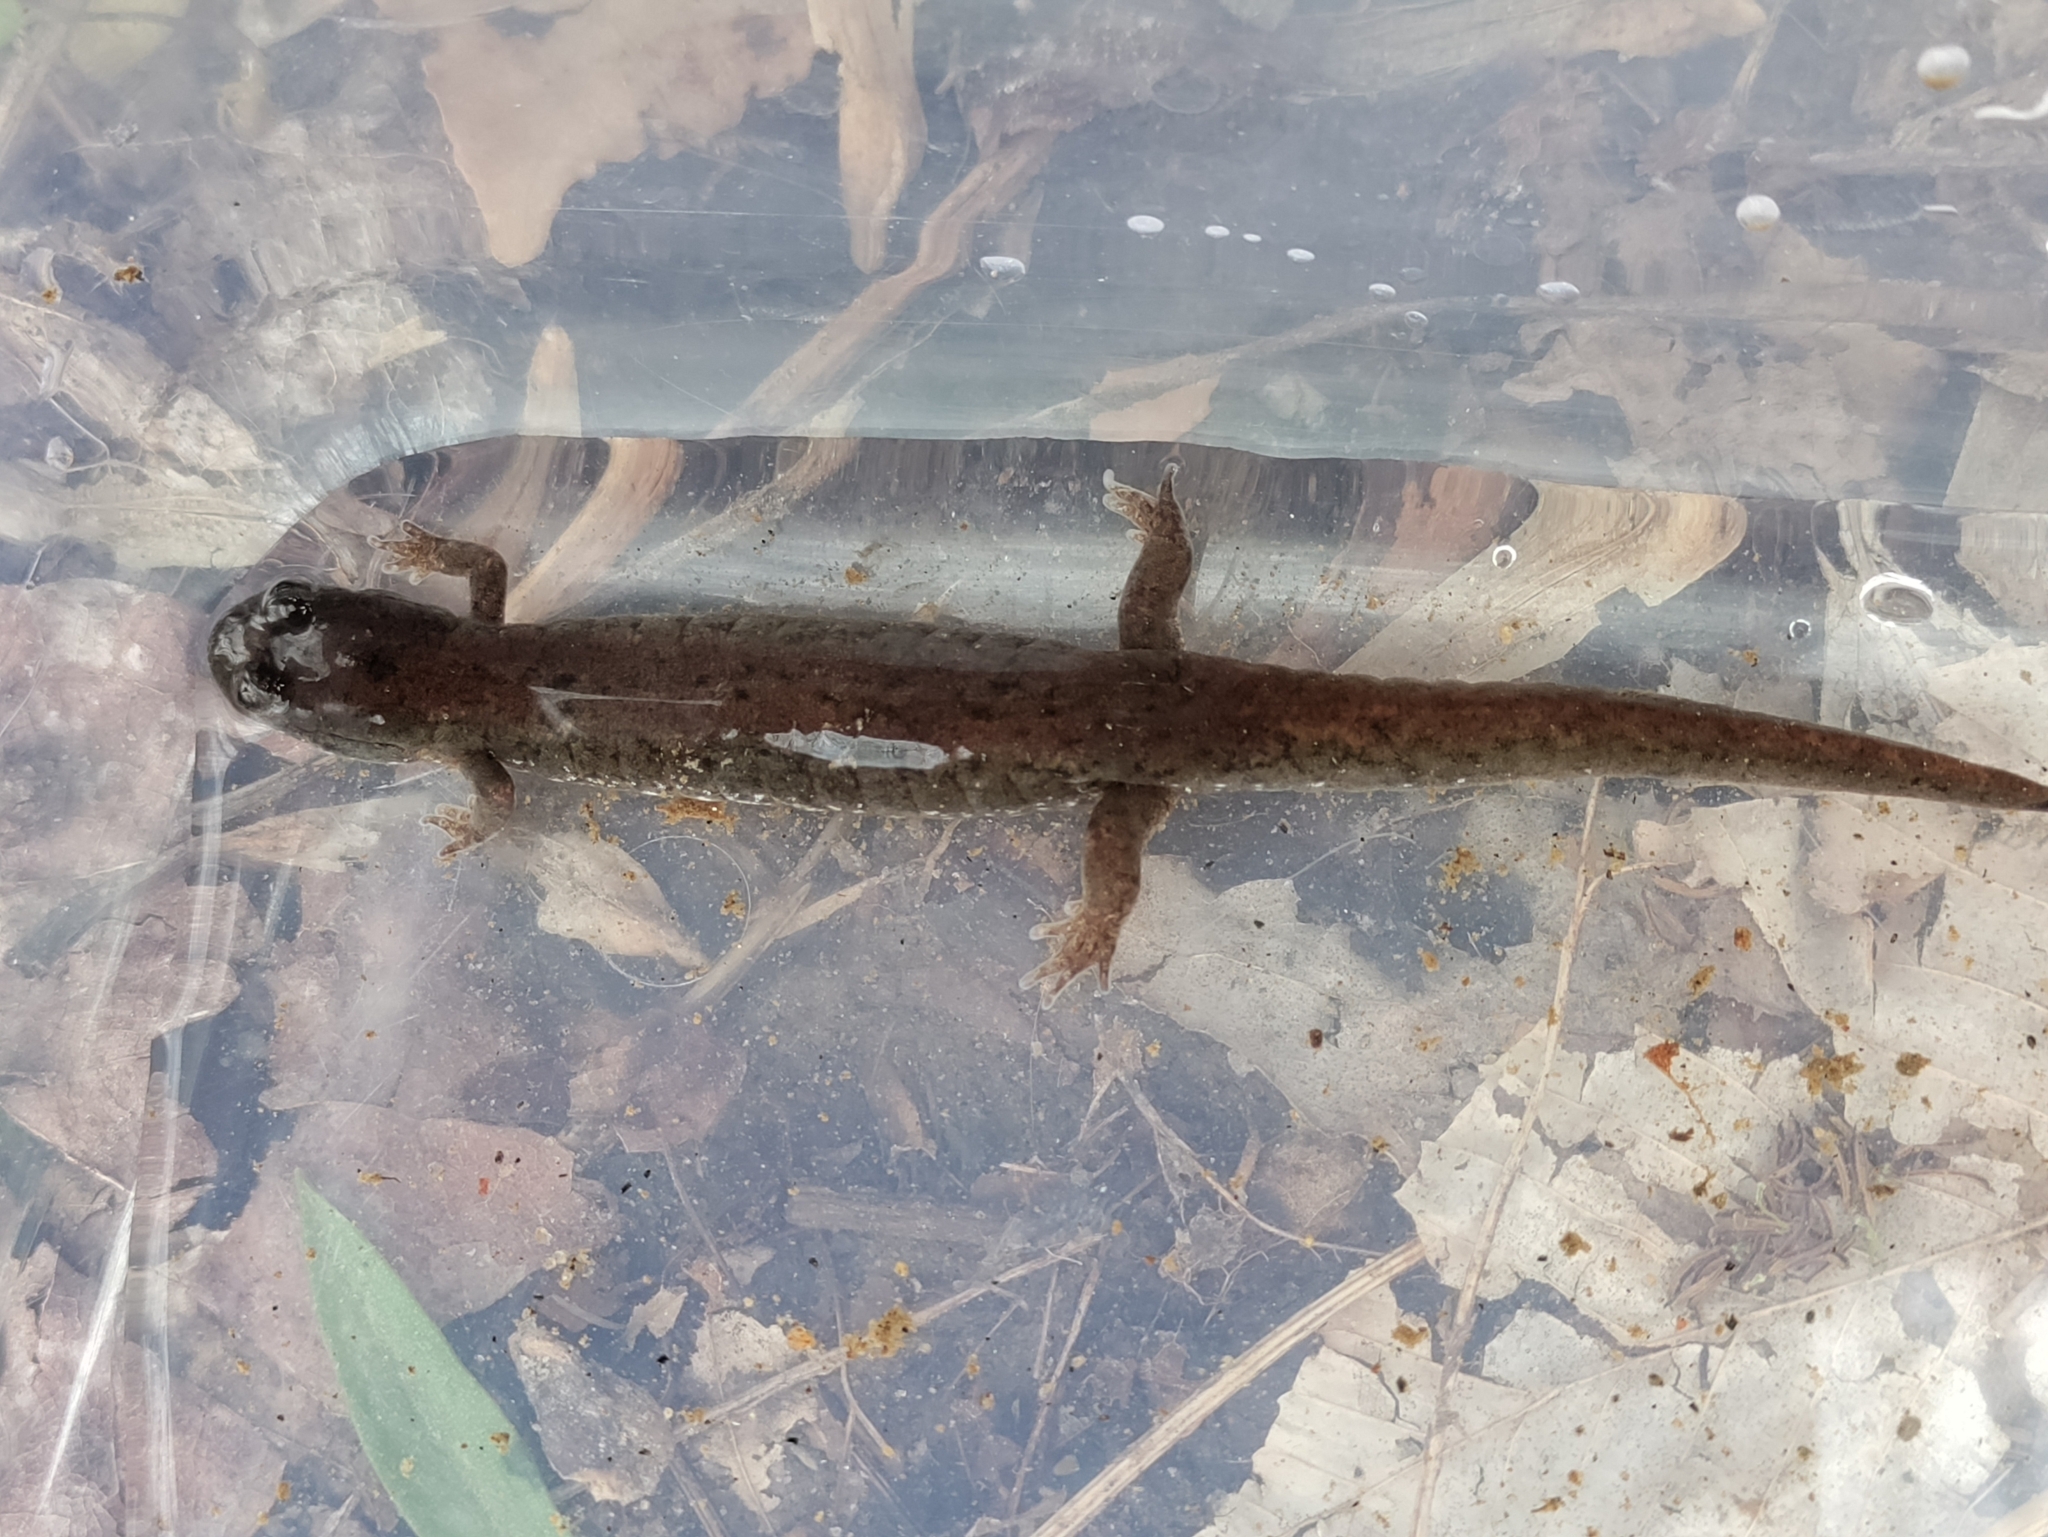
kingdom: Animalia
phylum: Chordata
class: Amphibia
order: Caudata
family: Plethodontidae
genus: Desmognathus
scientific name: Desmognathus fuscus
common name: Northern dusky salamander
